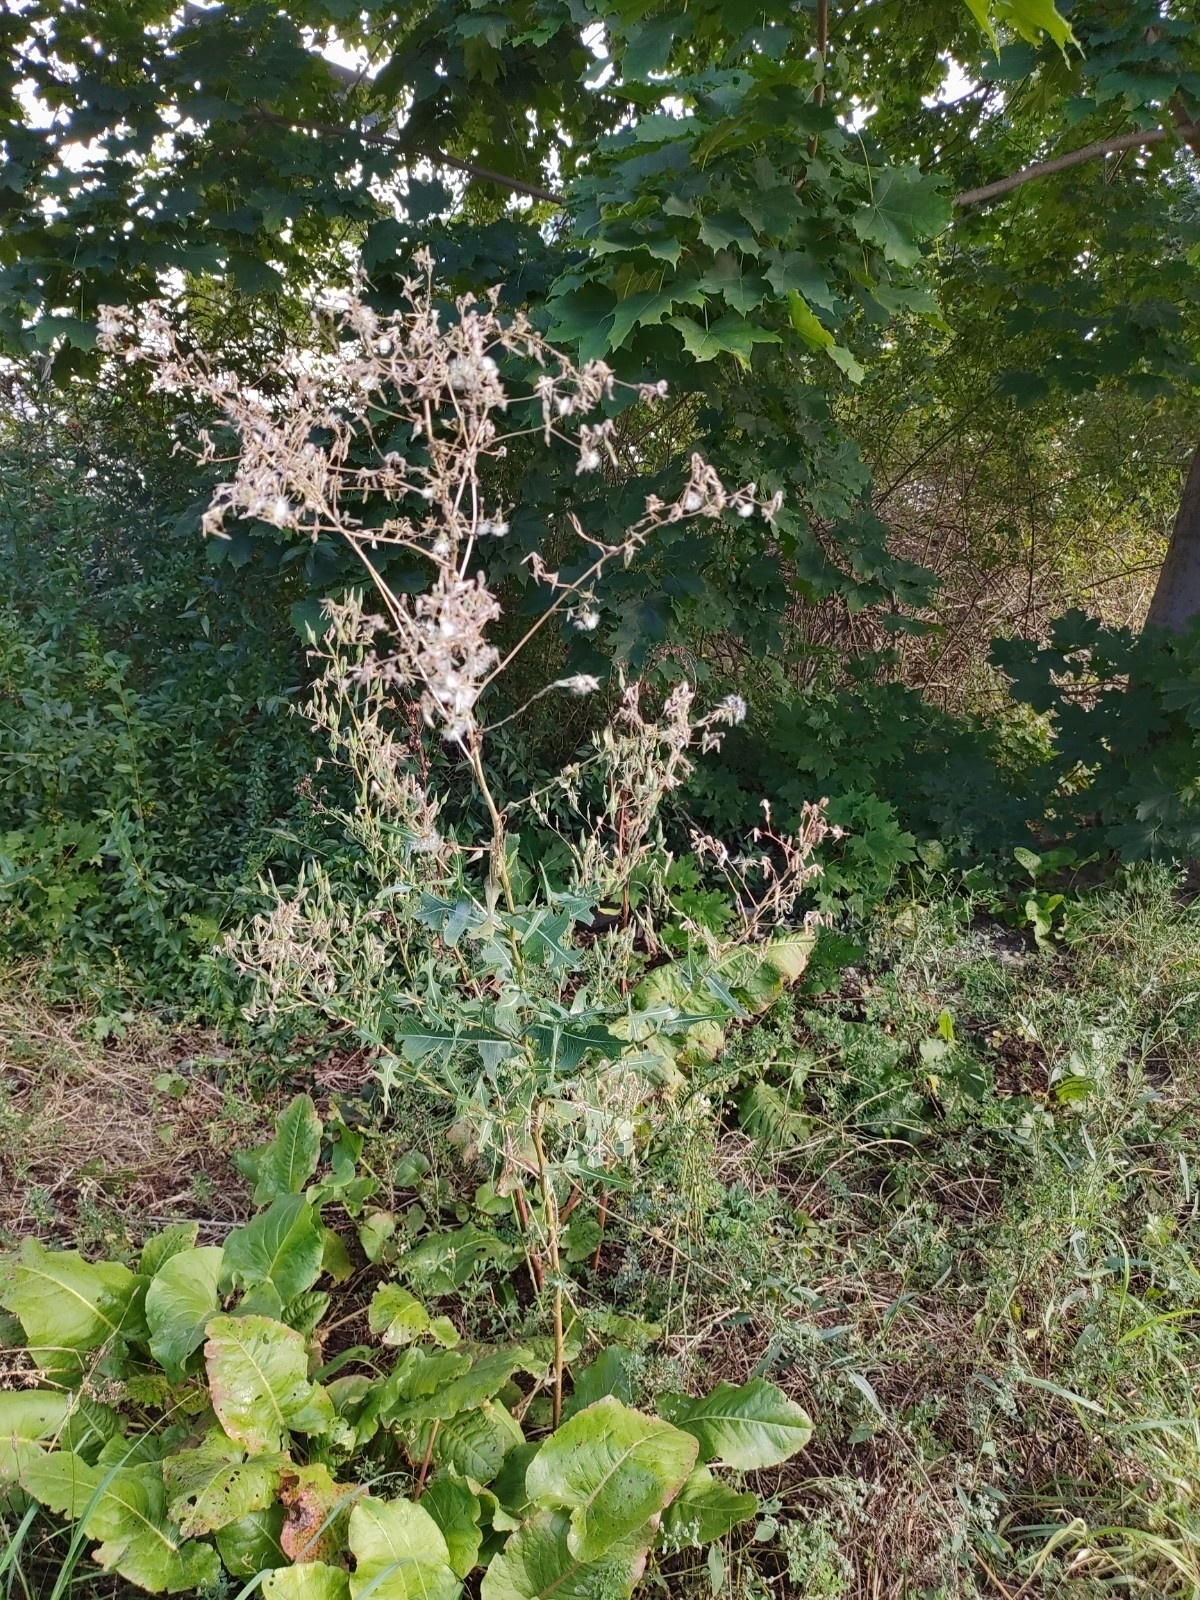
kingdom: Plantae
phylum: Tracheophyta
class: Magnoliopsida
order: Asterales
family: Asteraceae
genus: Lactuca
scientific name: Lactuca serriola
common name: Prickly lettuce
